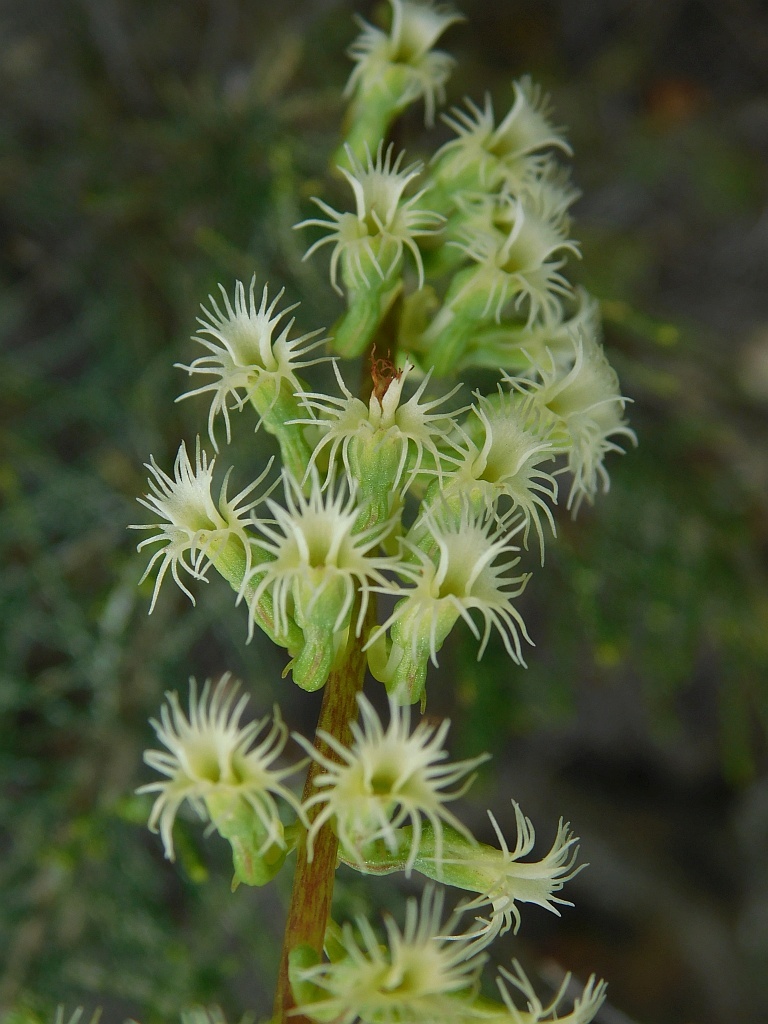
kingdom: Plantae
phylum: Tracheophyta
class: Liliopsida
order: Asparagales
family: Orchidaceae
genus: Holothrix
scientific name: Holothrix burchellii
